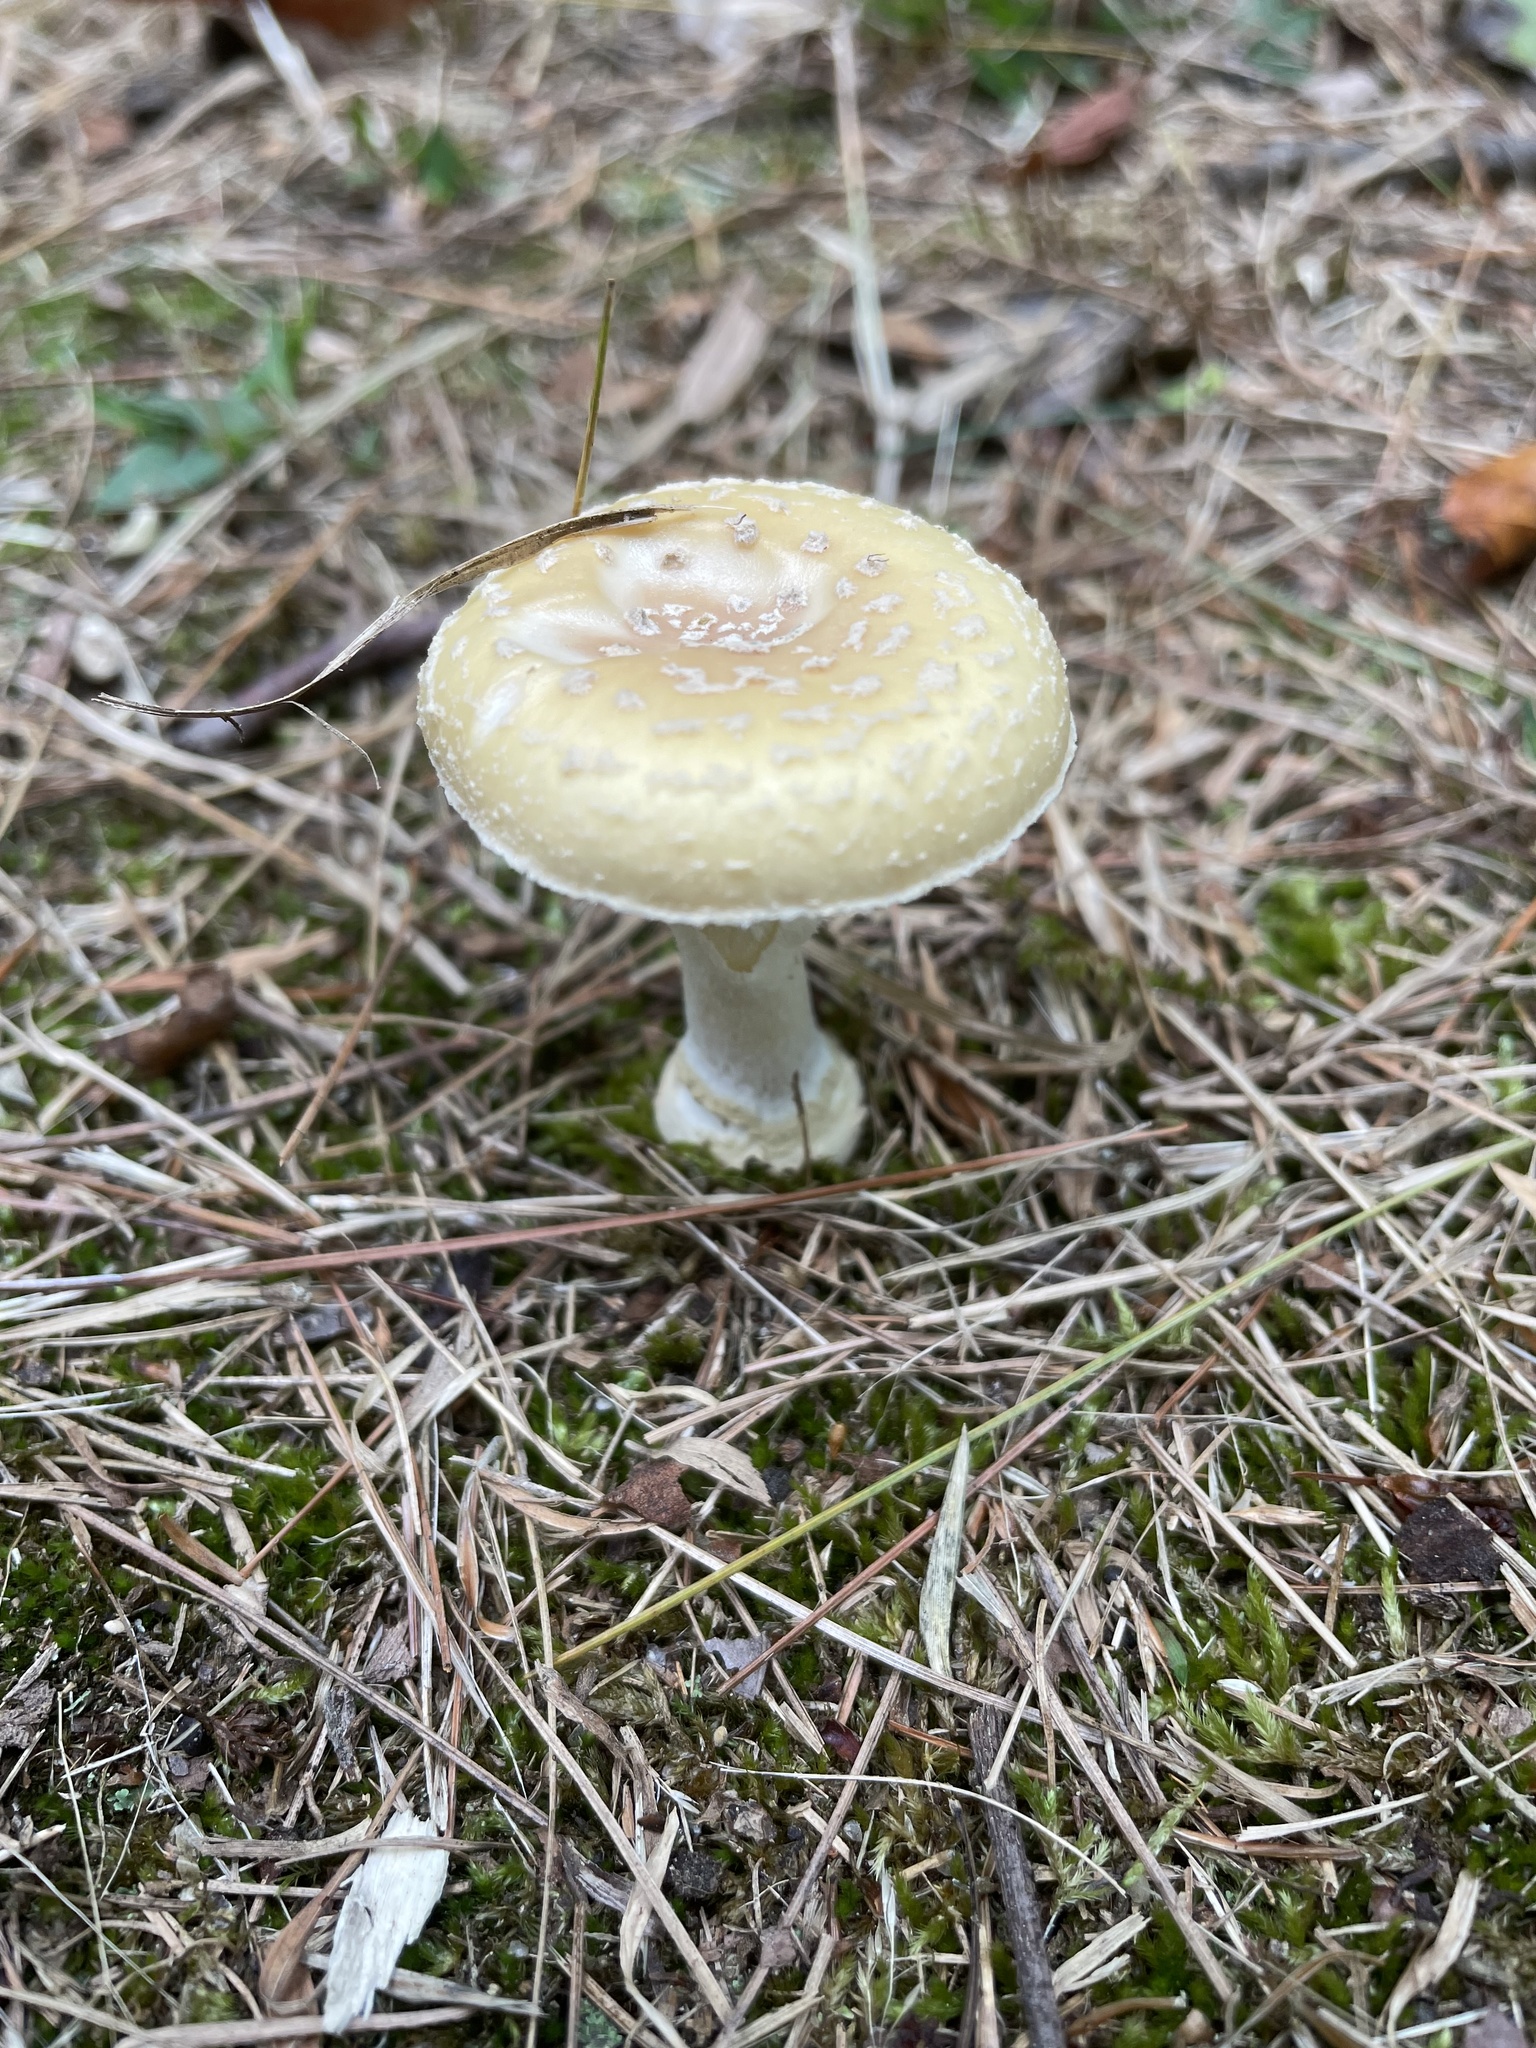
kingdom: Fungi
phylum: Basidiomycota
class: Agaricomycetes
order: Agaricales
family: Amanitaceae
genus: Amanita
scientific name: Amanita crenulata
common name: Poison champagne amanita
